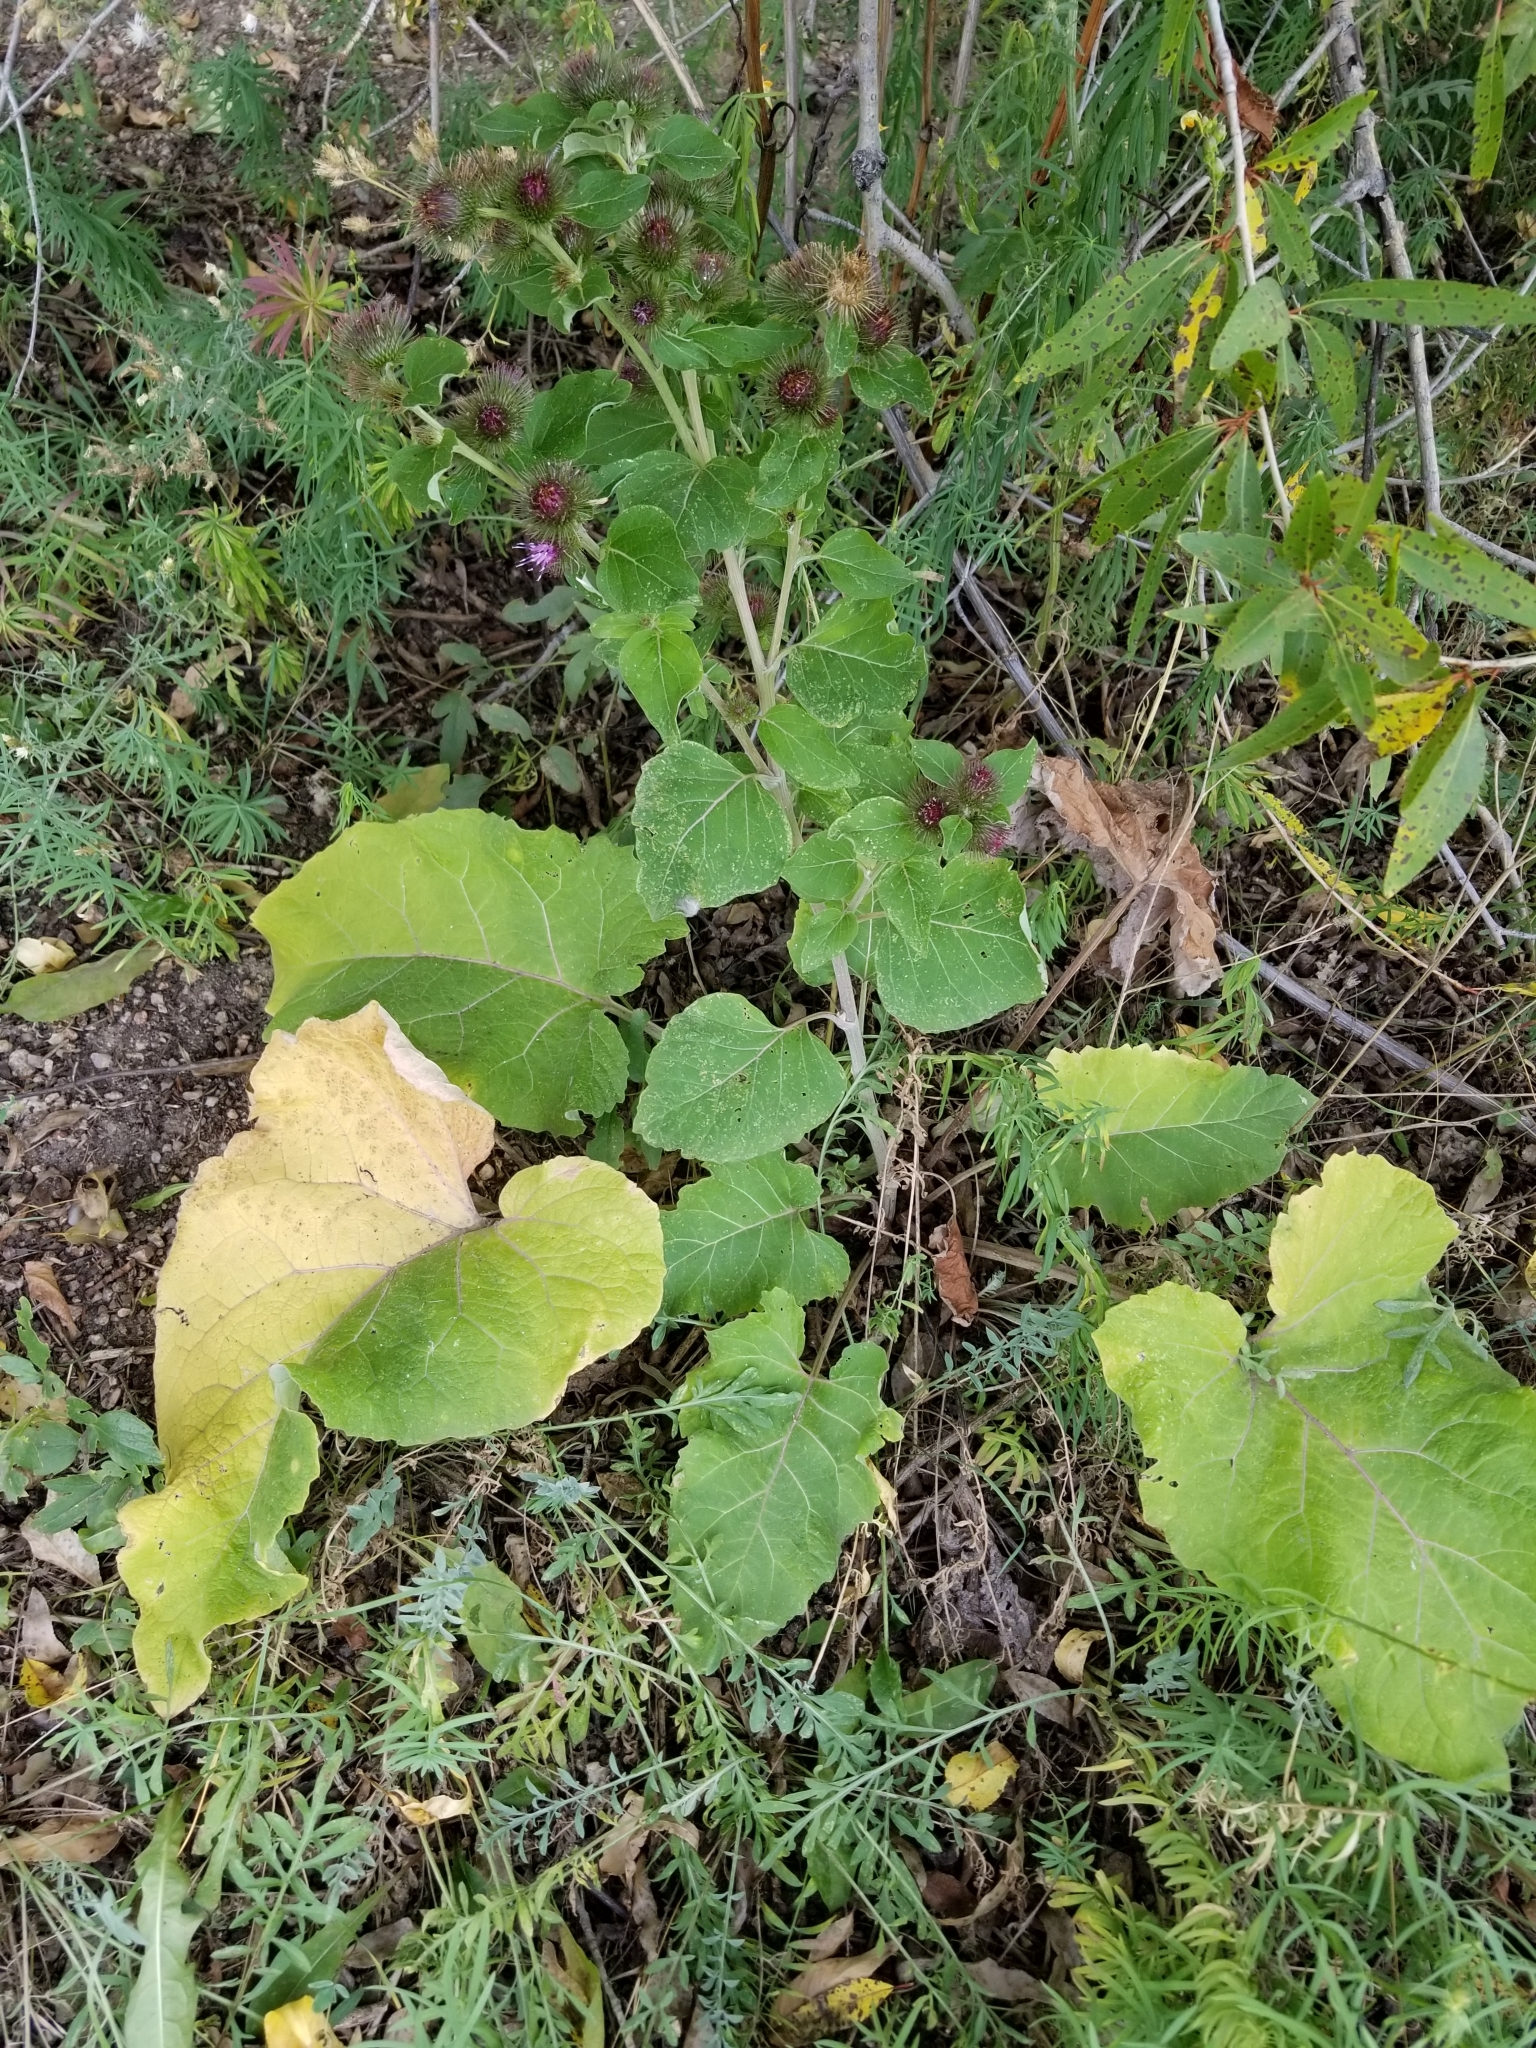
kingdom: Plantae
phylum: Tracheophyta
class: Magnoliopsida
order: Asterales
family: Asteraceae
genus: Arctium
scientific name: Arctium minus
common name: Lesser burdock
